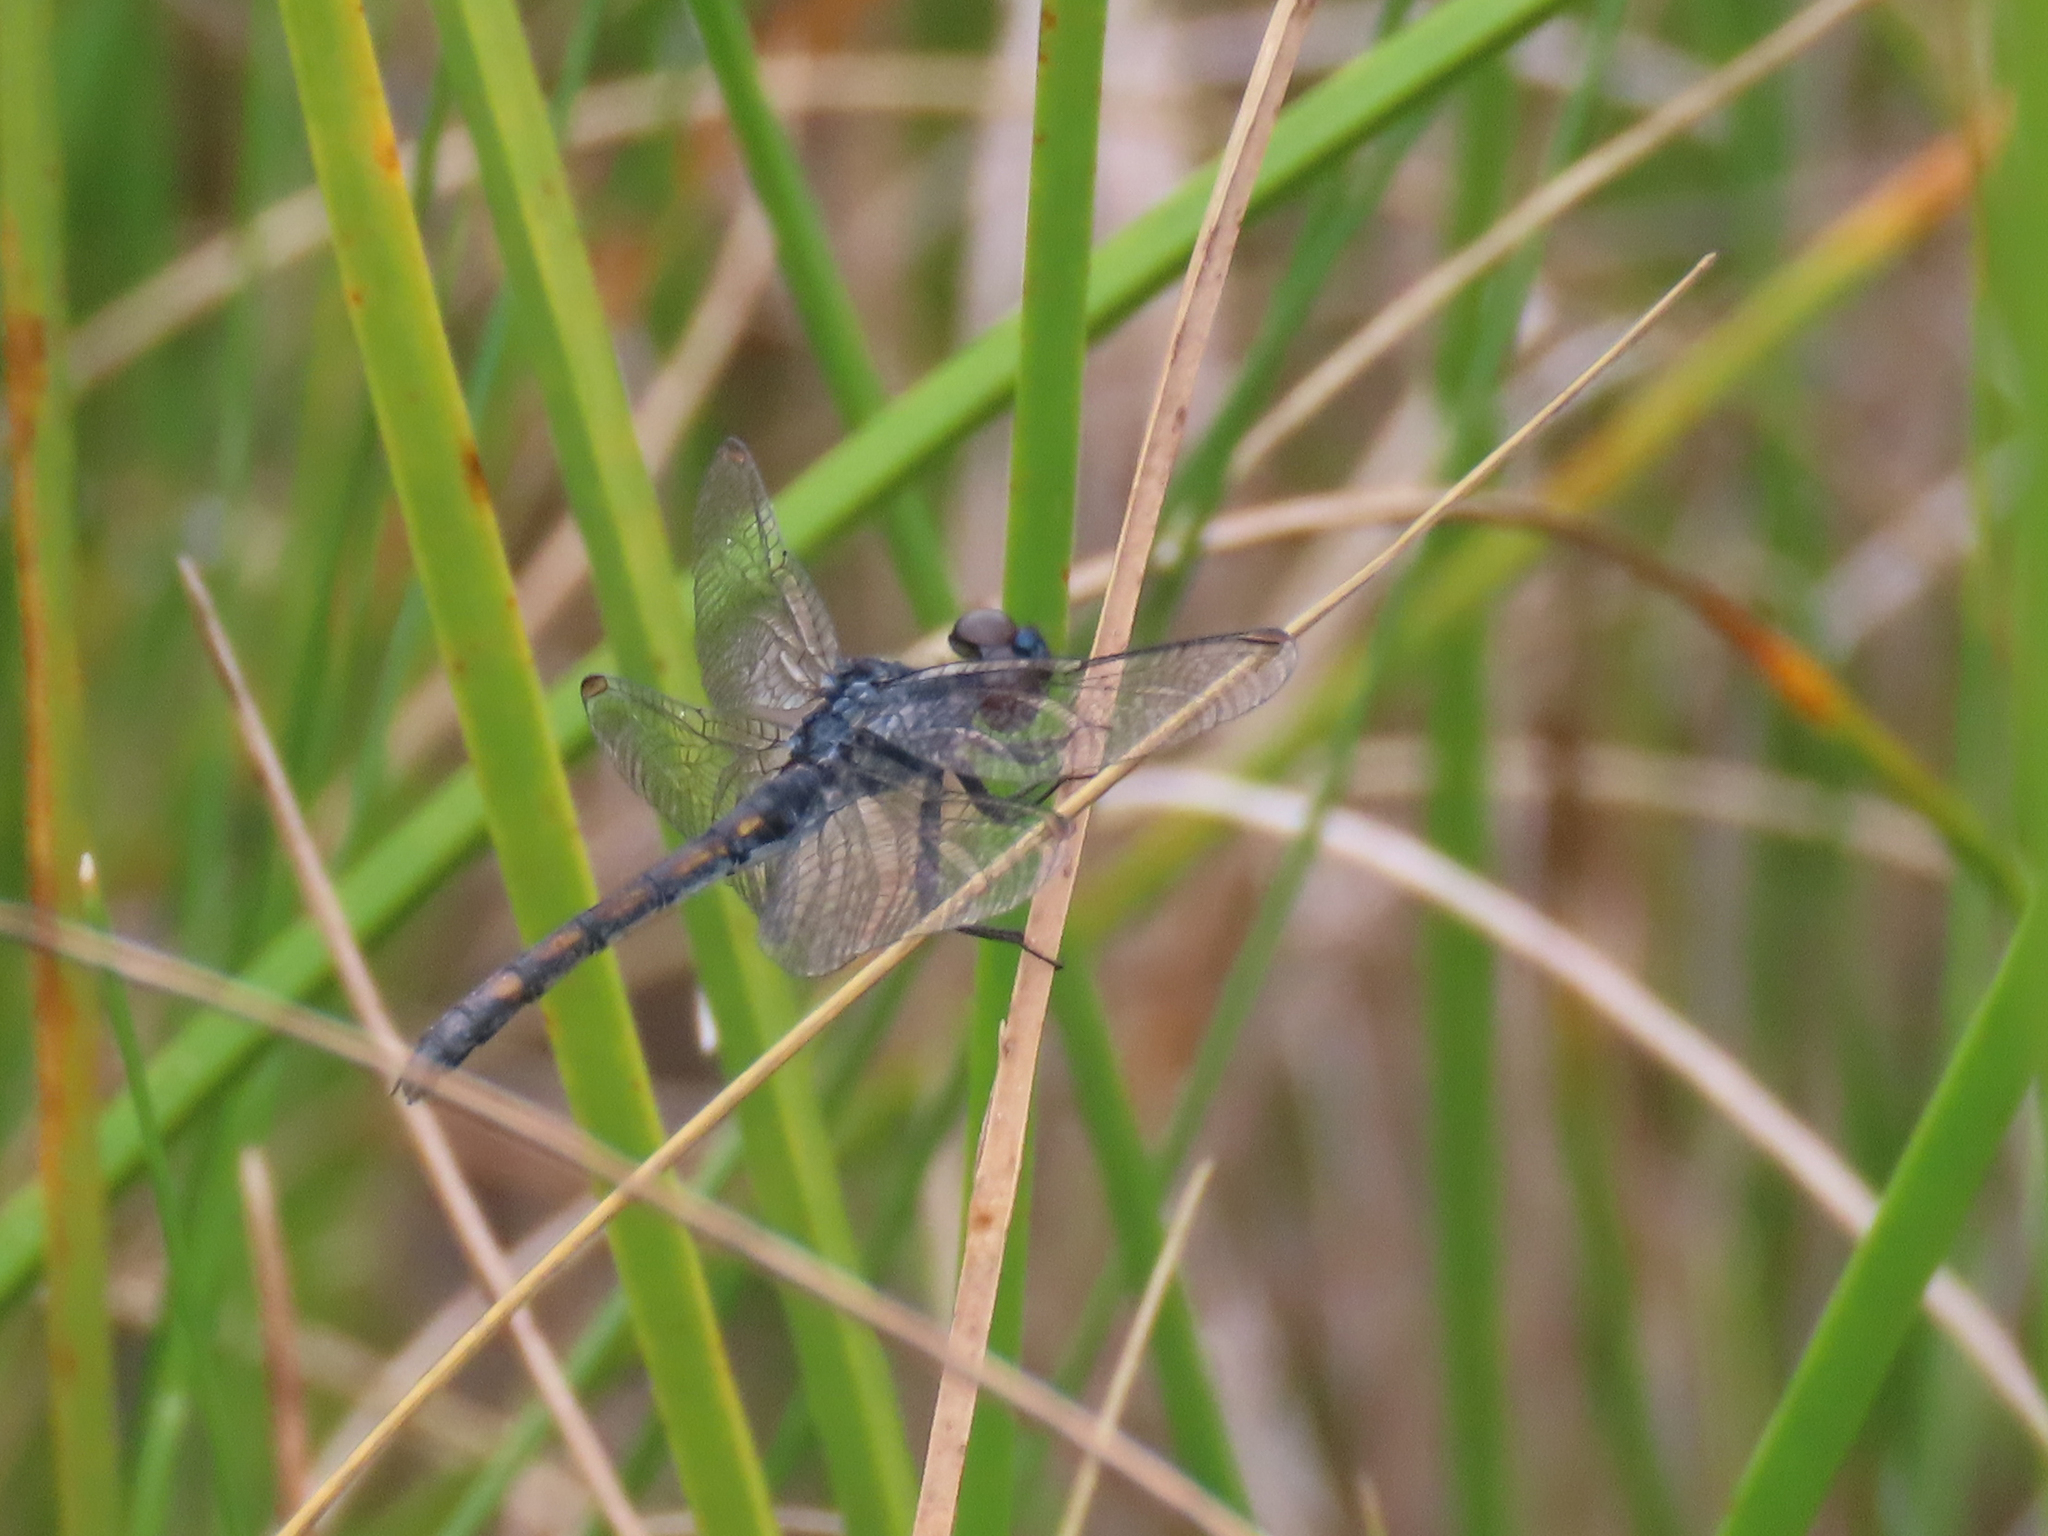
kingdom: Animalia
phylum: Arthropoda
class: Insecta
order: Odonata
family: Libellulidae
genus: Erythrodiplax
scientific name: Erythrodiplax berenice
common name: Seaside dragonlet
